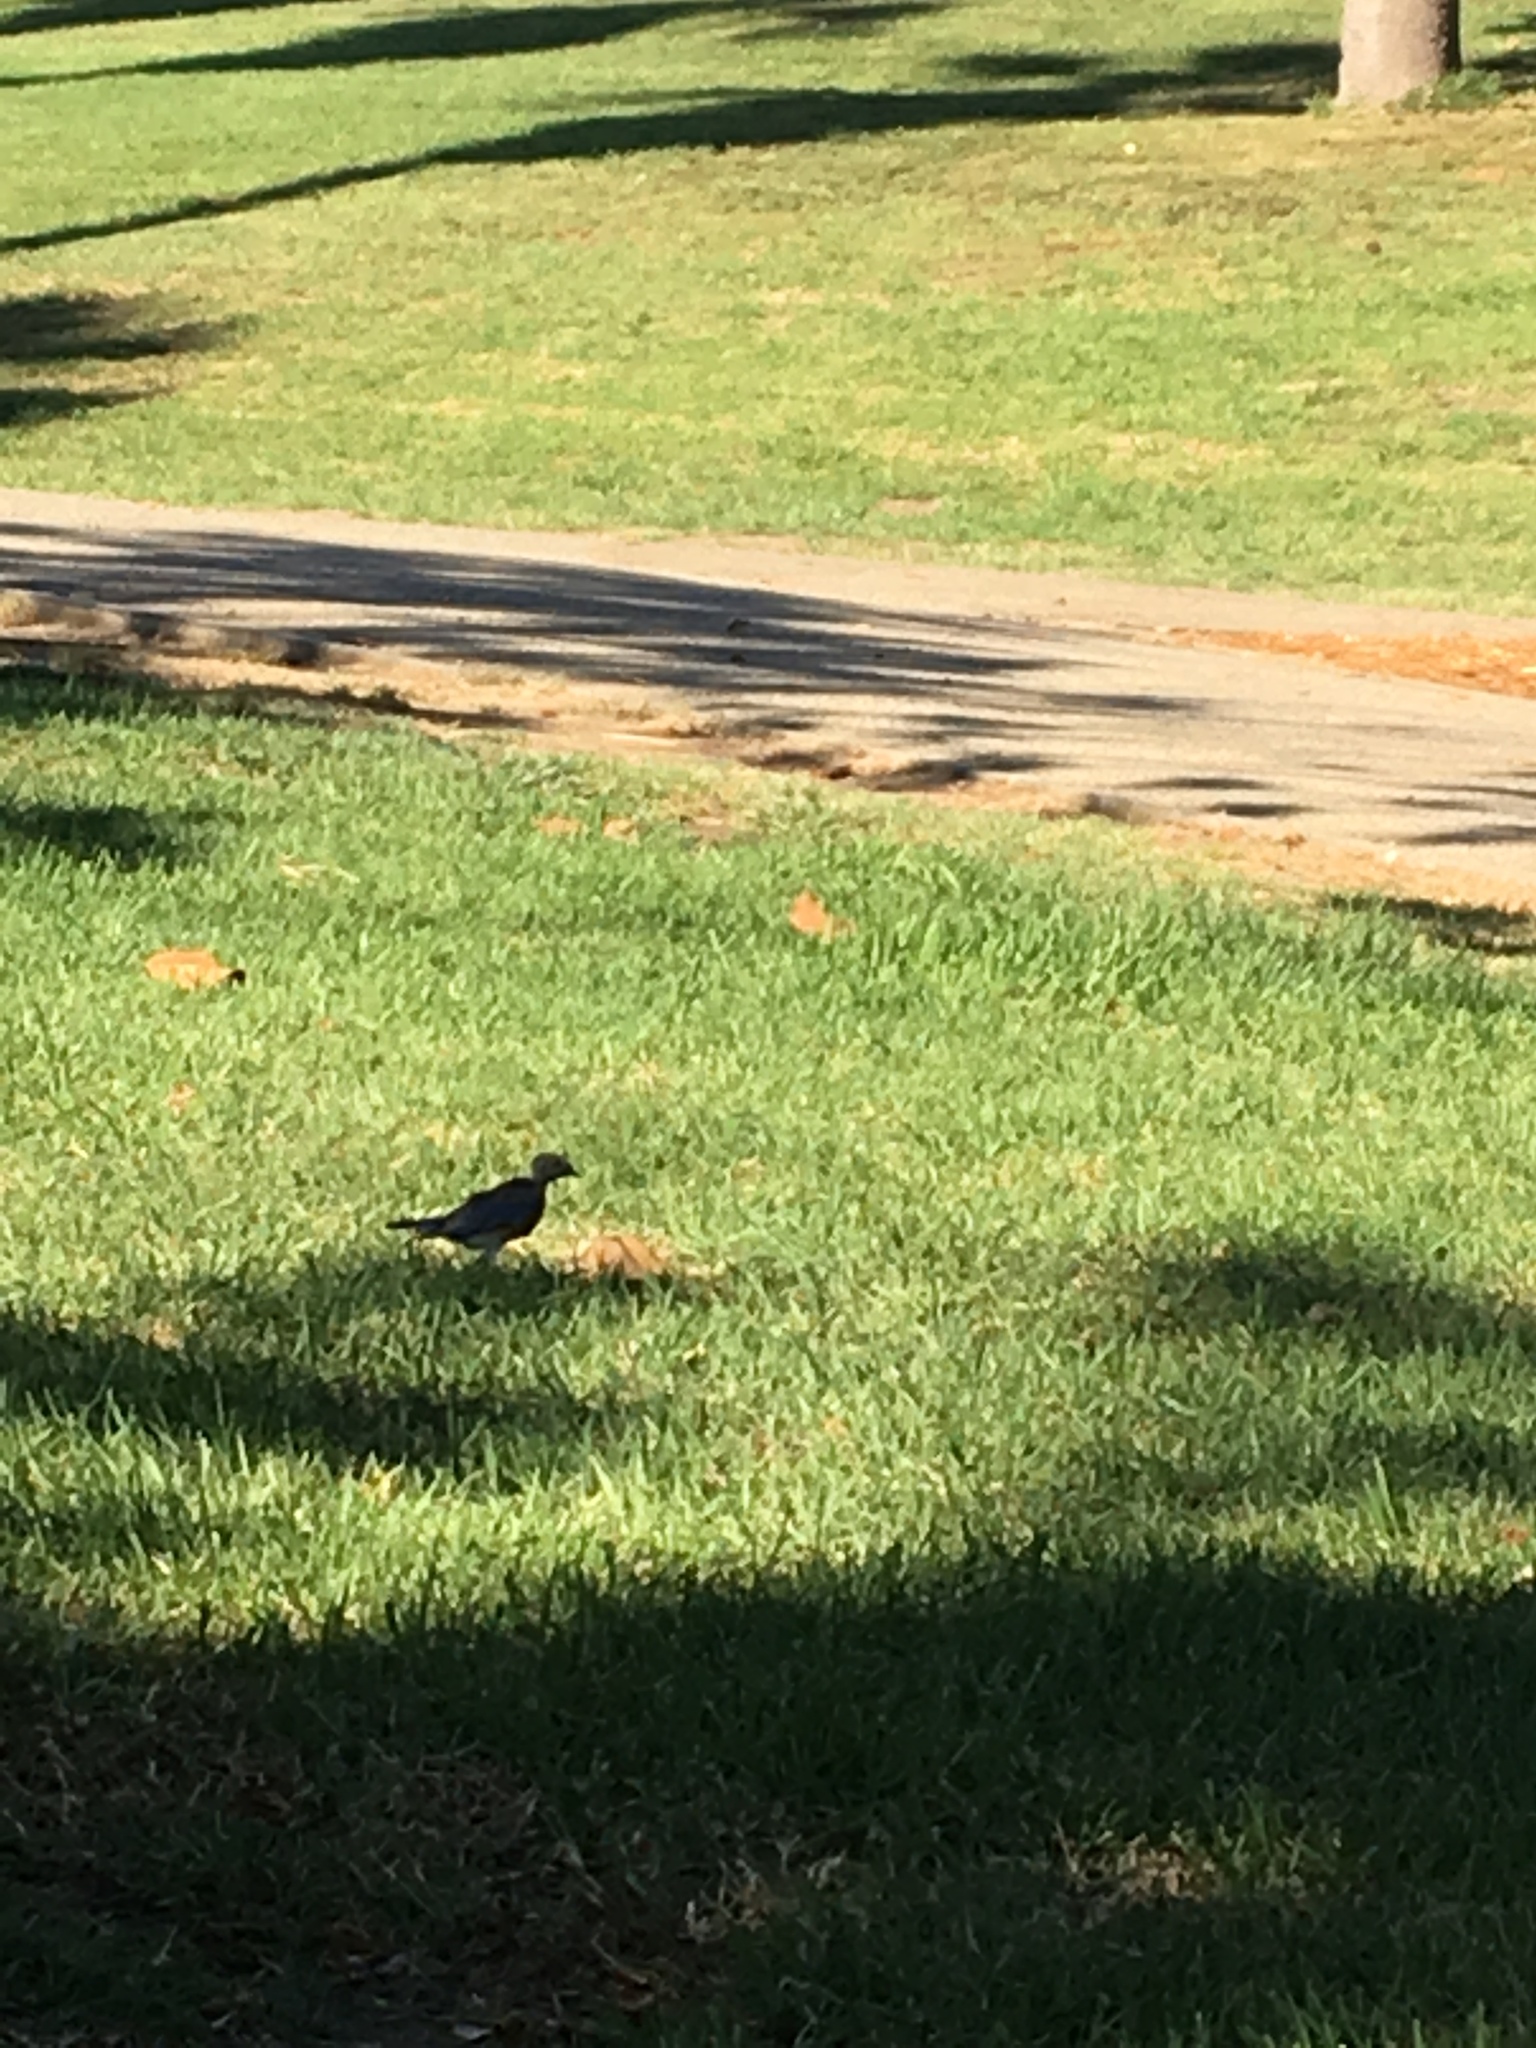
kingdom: Animalia
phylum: Chordata
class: Aves
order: Passeriformes
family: Turdidae
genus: Sialia
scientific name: Sialia mexicana
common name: Western bluebird
